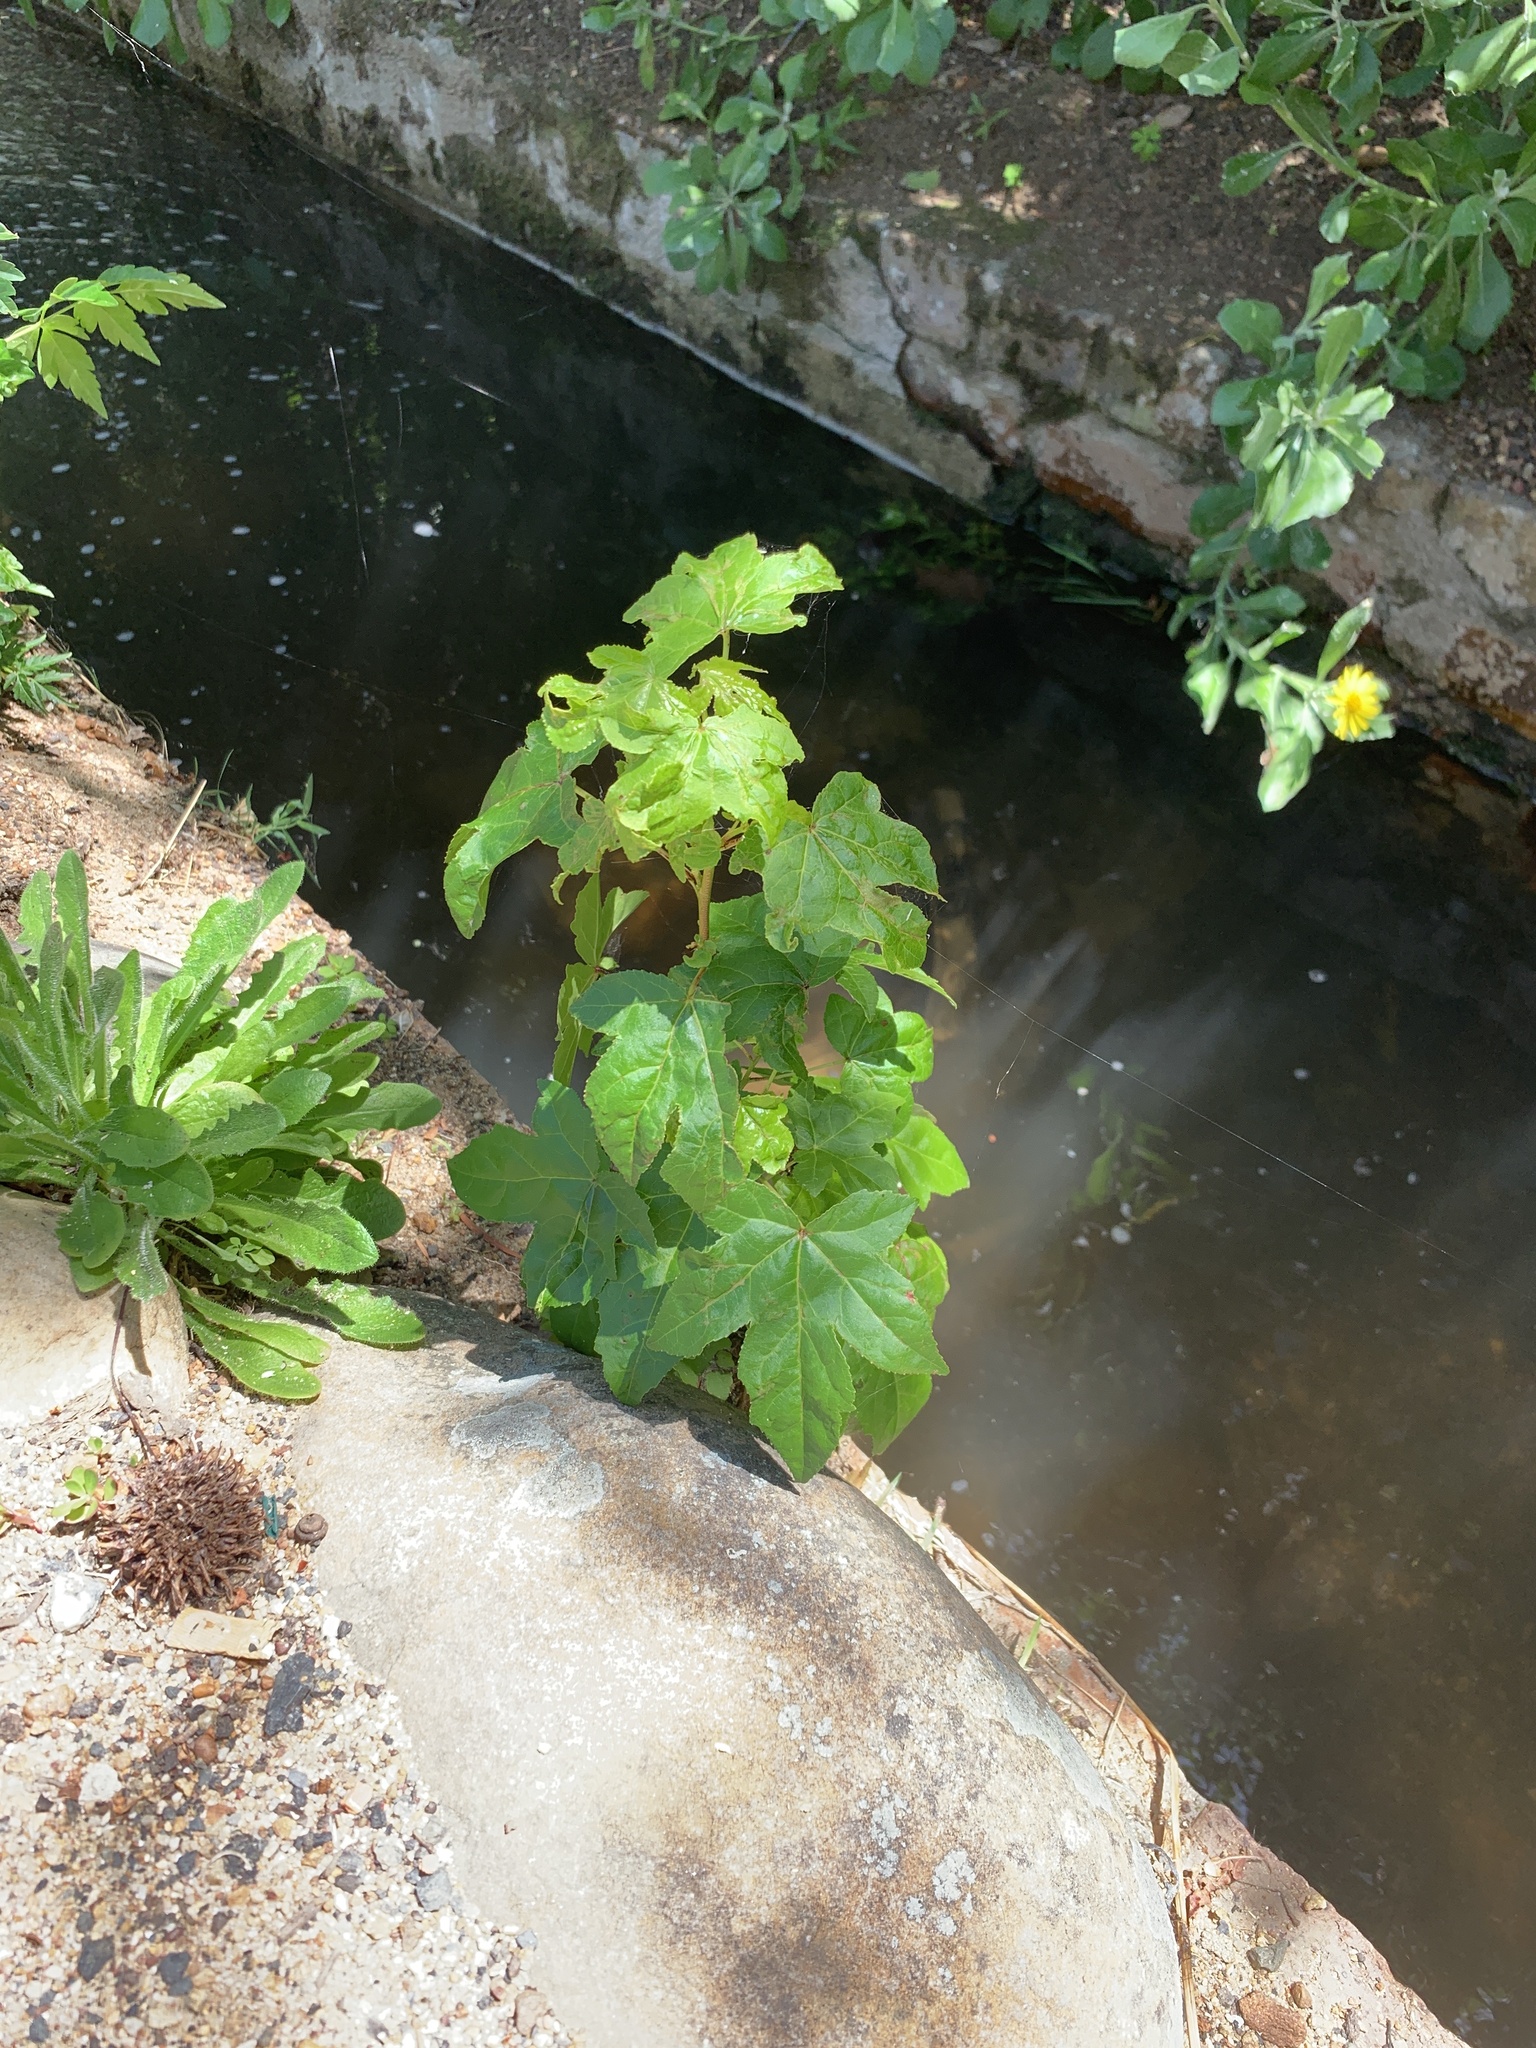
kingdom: Plantae
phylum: Tracheophyta
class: Magnoliopsida
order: Saxifragales
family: Altingiaceae
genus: Liquidambar
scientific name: Liquidambar styraciflua
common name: Sweet gum
